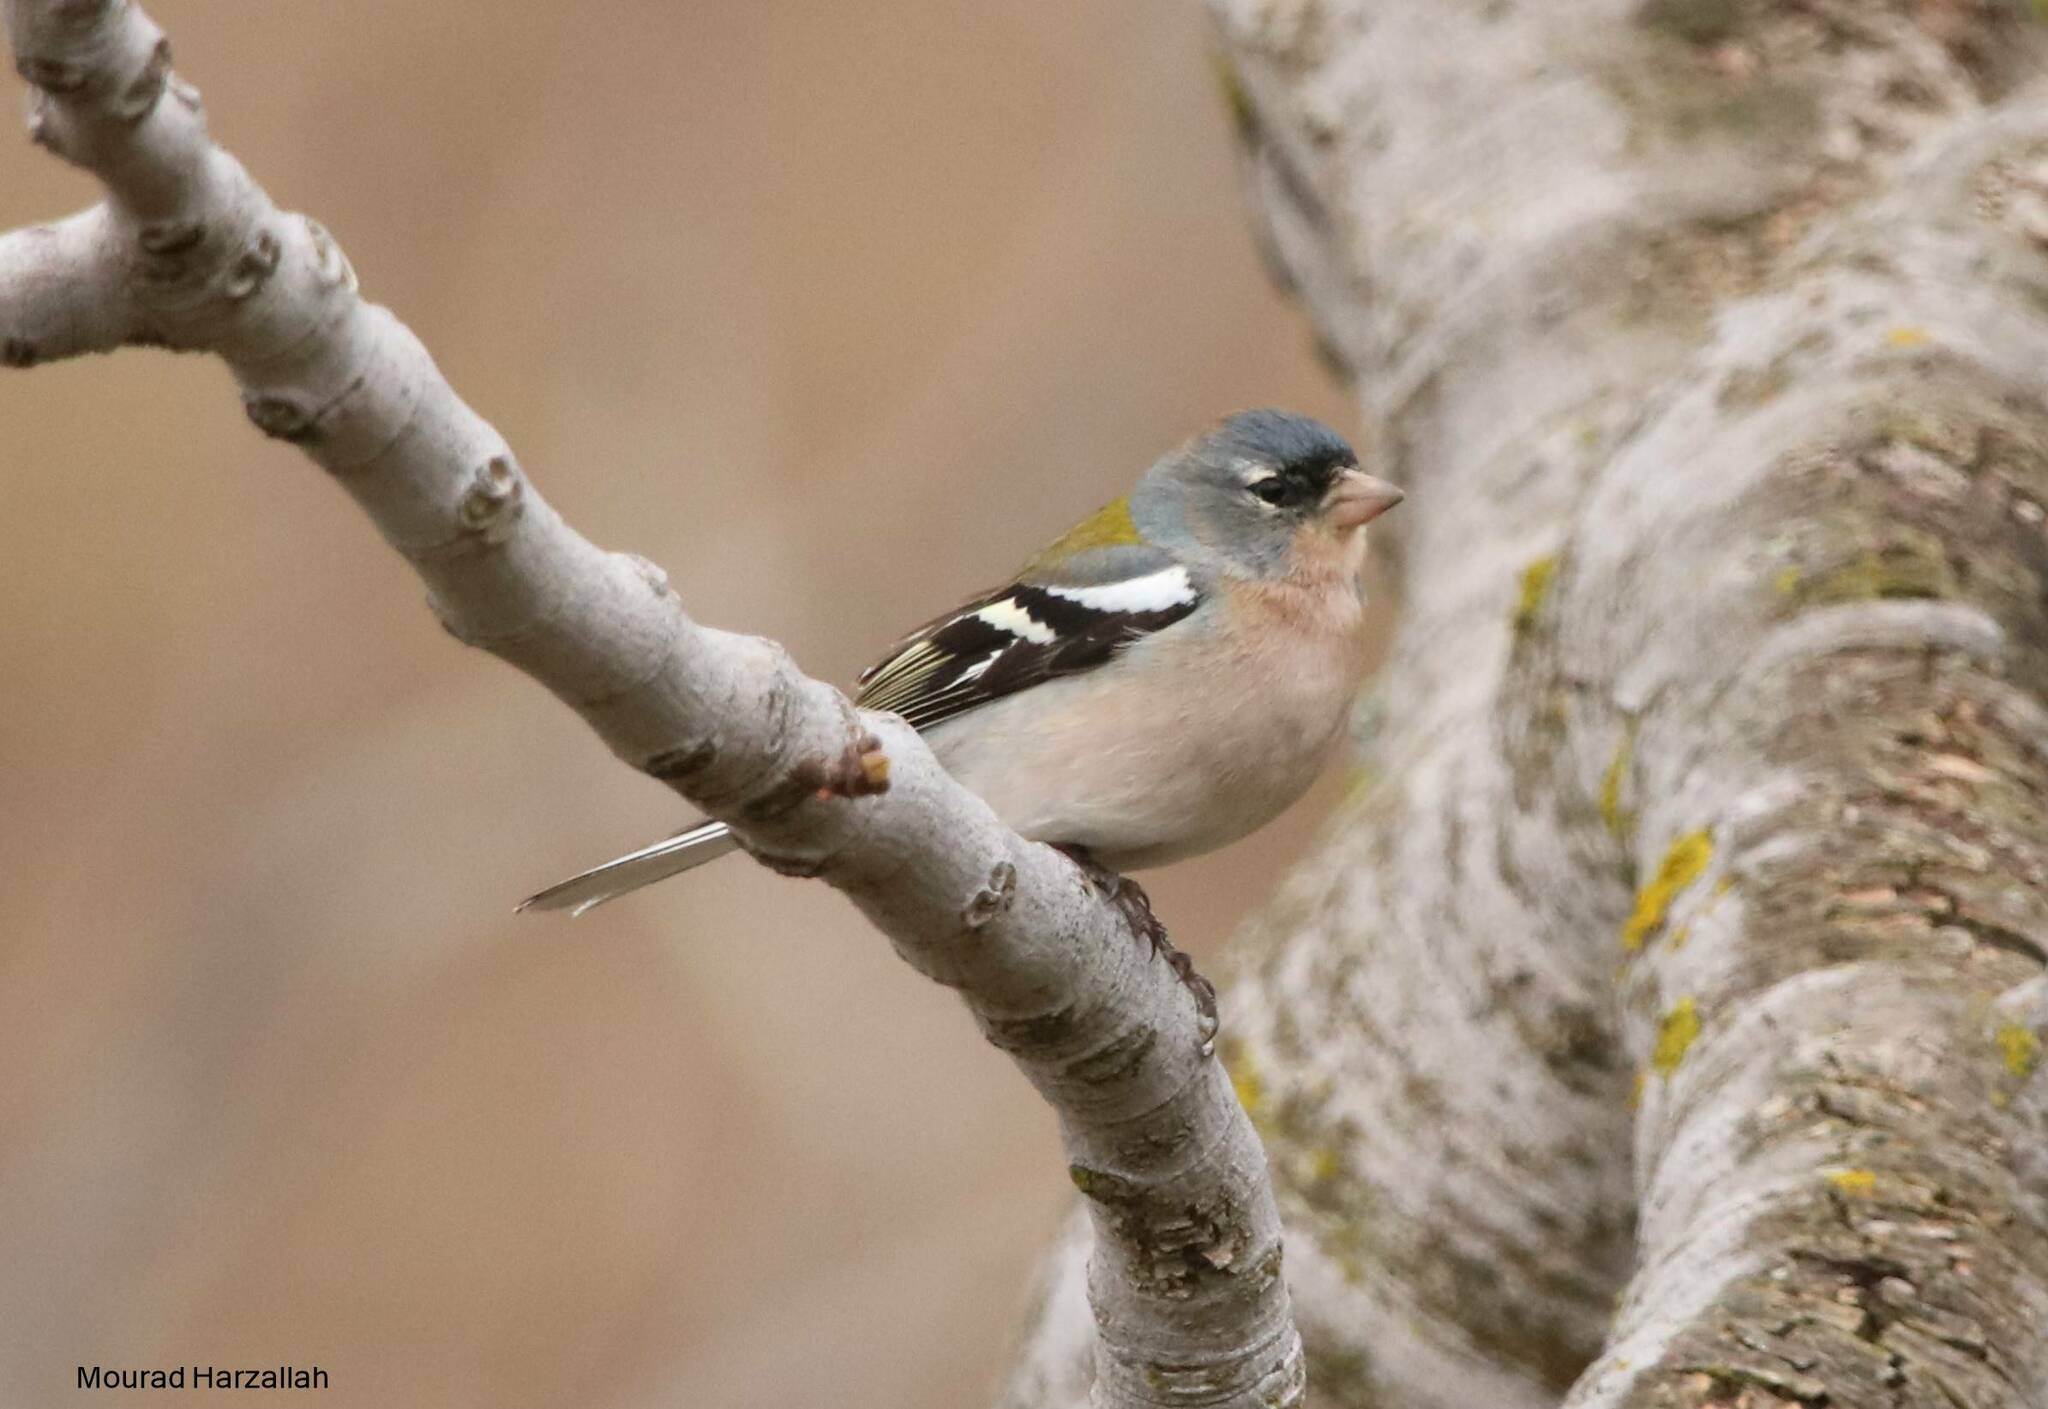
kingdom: Animalia
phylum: Chordata
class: Aves
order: Passeriformes
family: Fringillidae
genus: Fringilla
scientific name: Fringilla spodiogenys
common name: African chaffinch
